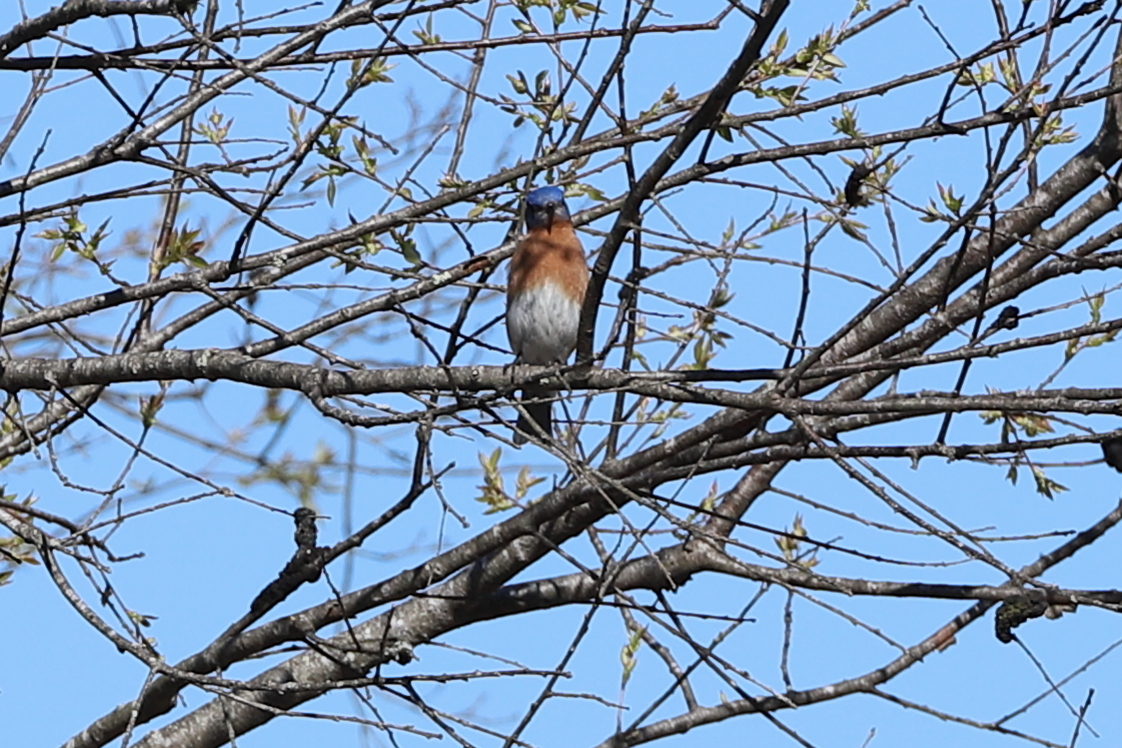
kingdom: Animalia
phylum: Chordata
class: Aves
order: Passeriformes
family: Turdidae
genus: Sialia
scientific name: Sialia sialis
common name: Eastern bluebird
